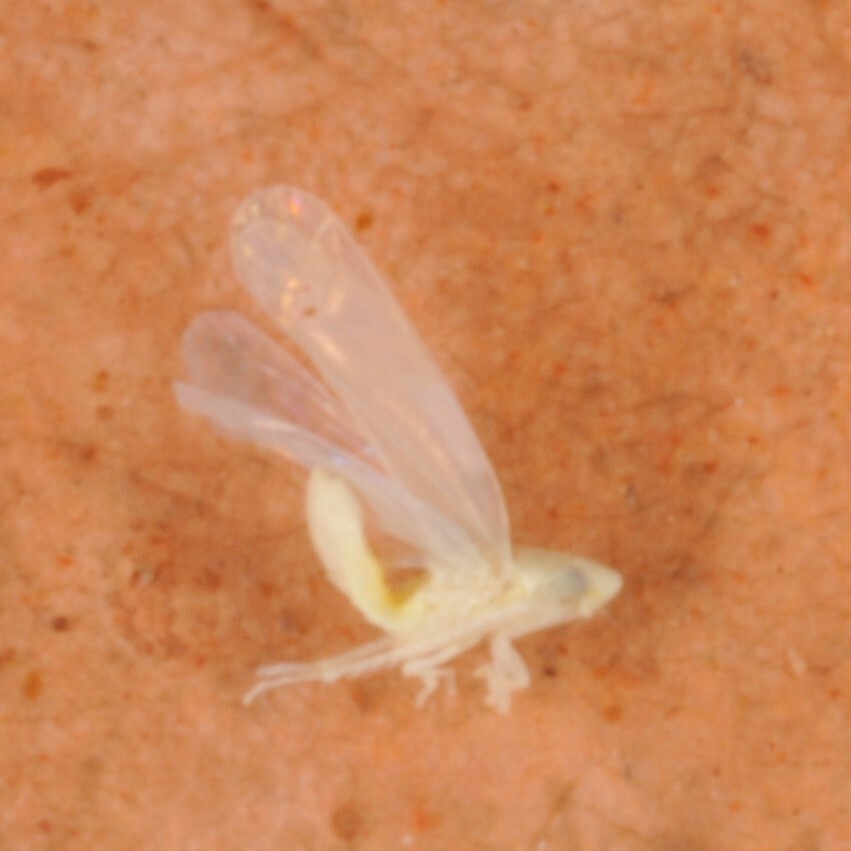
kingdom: Animalia
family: Typhlocybidae
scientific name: Typhlocybidae
